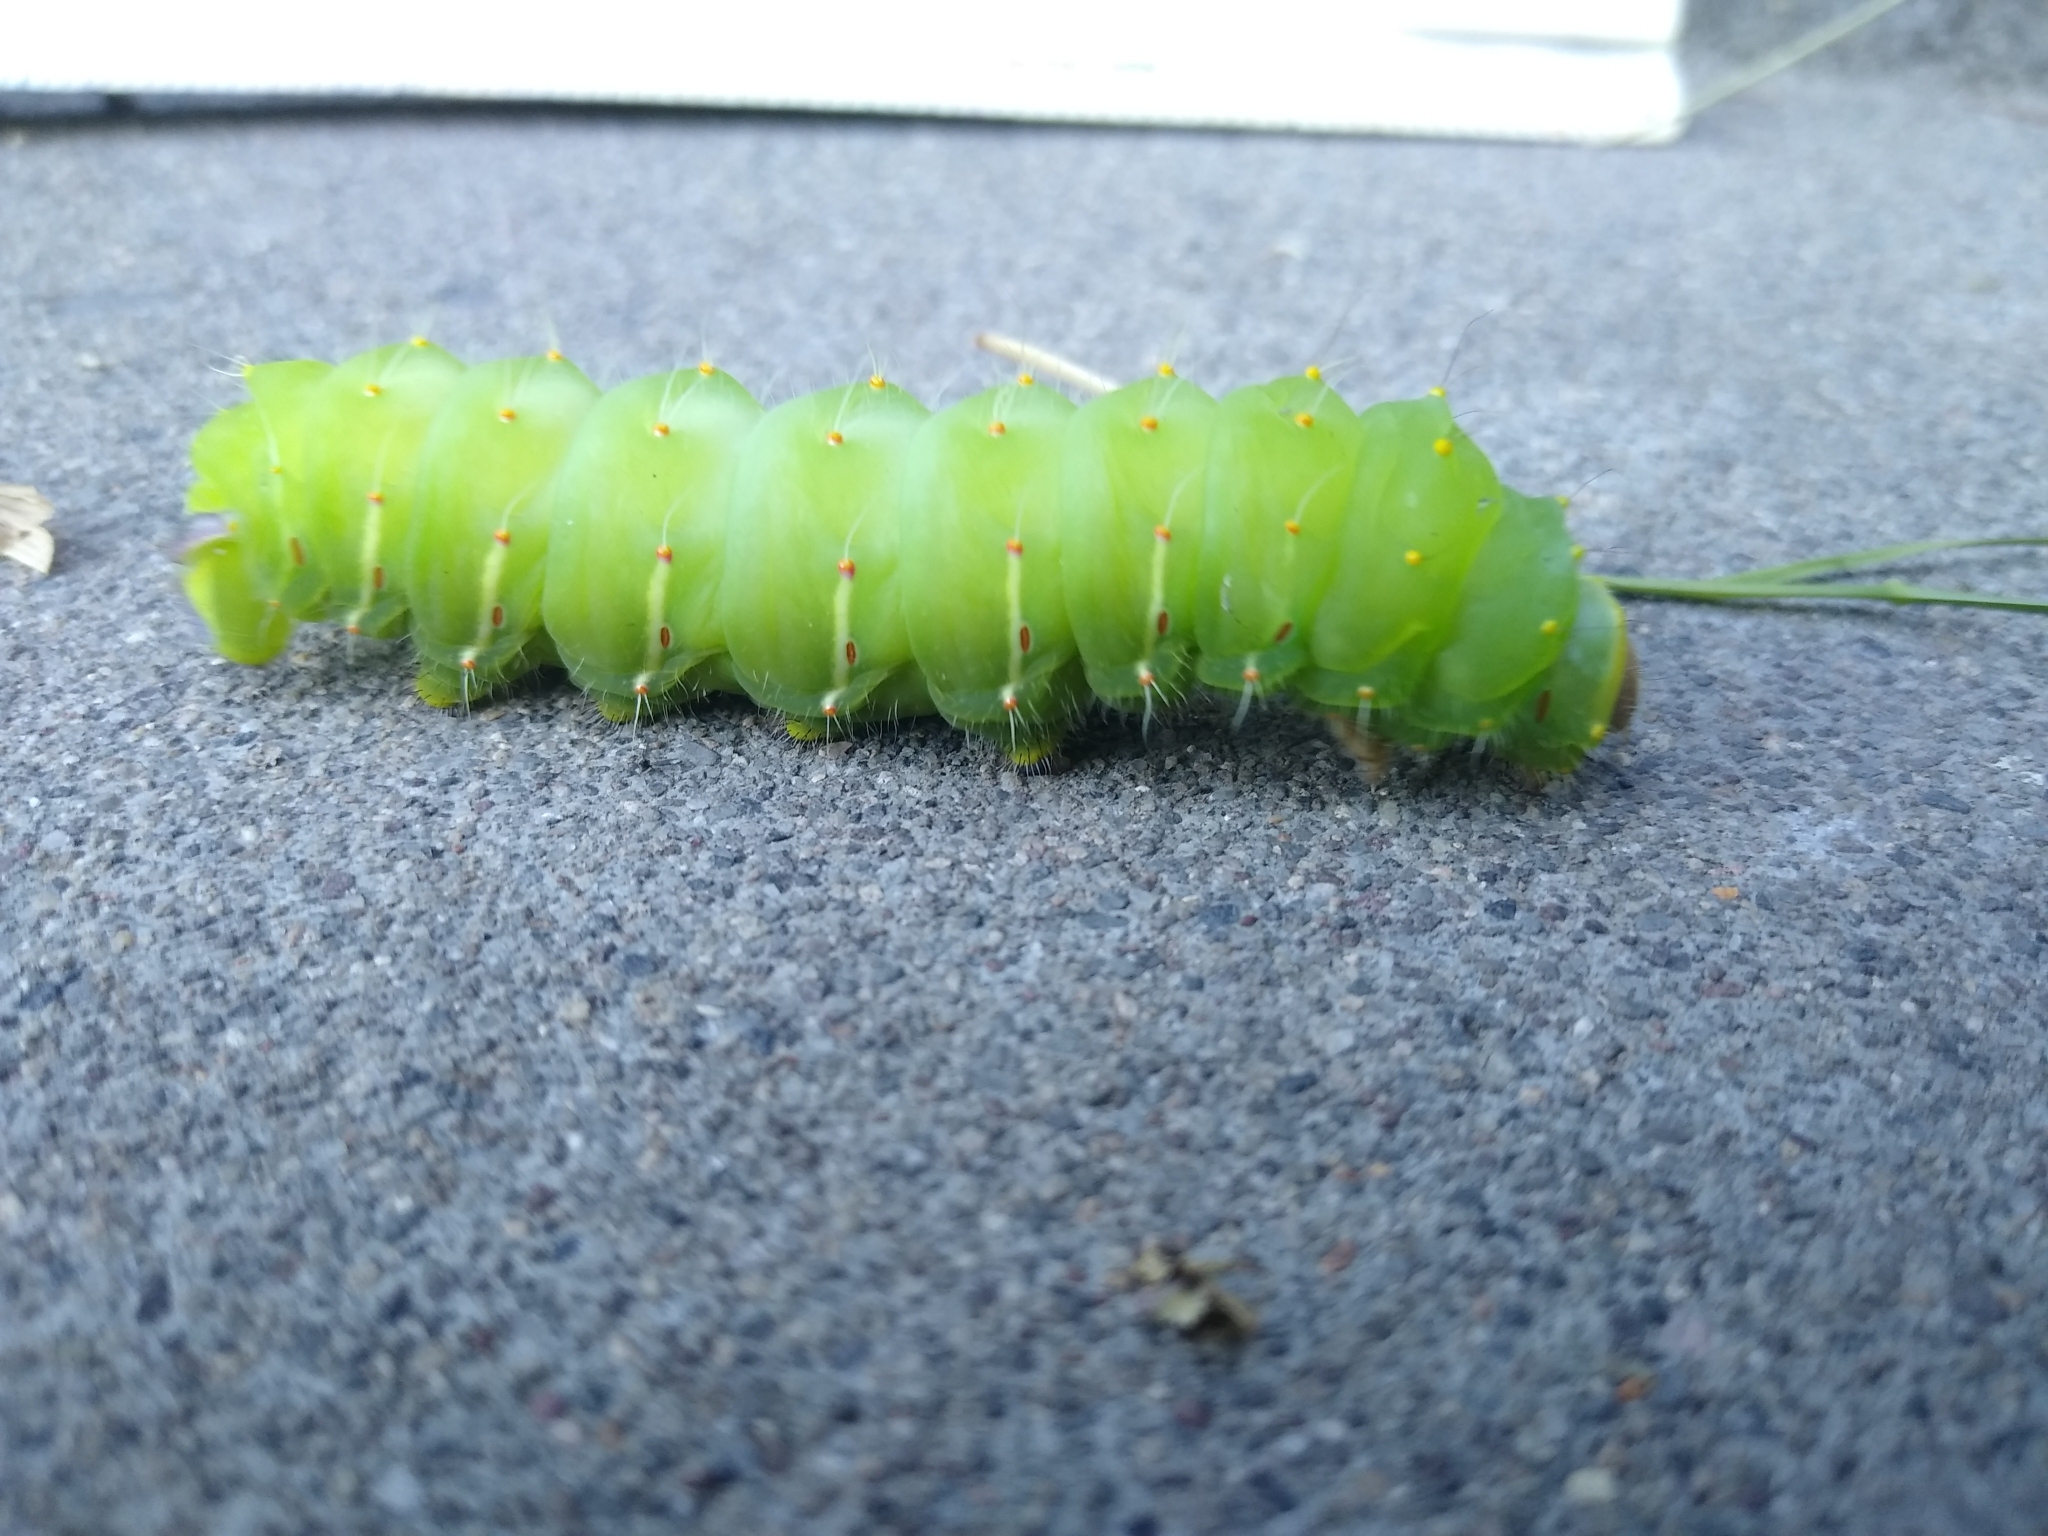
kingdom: Animalia
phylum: Arthropoda
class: Insecta
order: Lepidoptera
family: Saturniidae
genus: Antheraea
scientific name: Antheraea polyphemus
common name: Polyphemus moth
